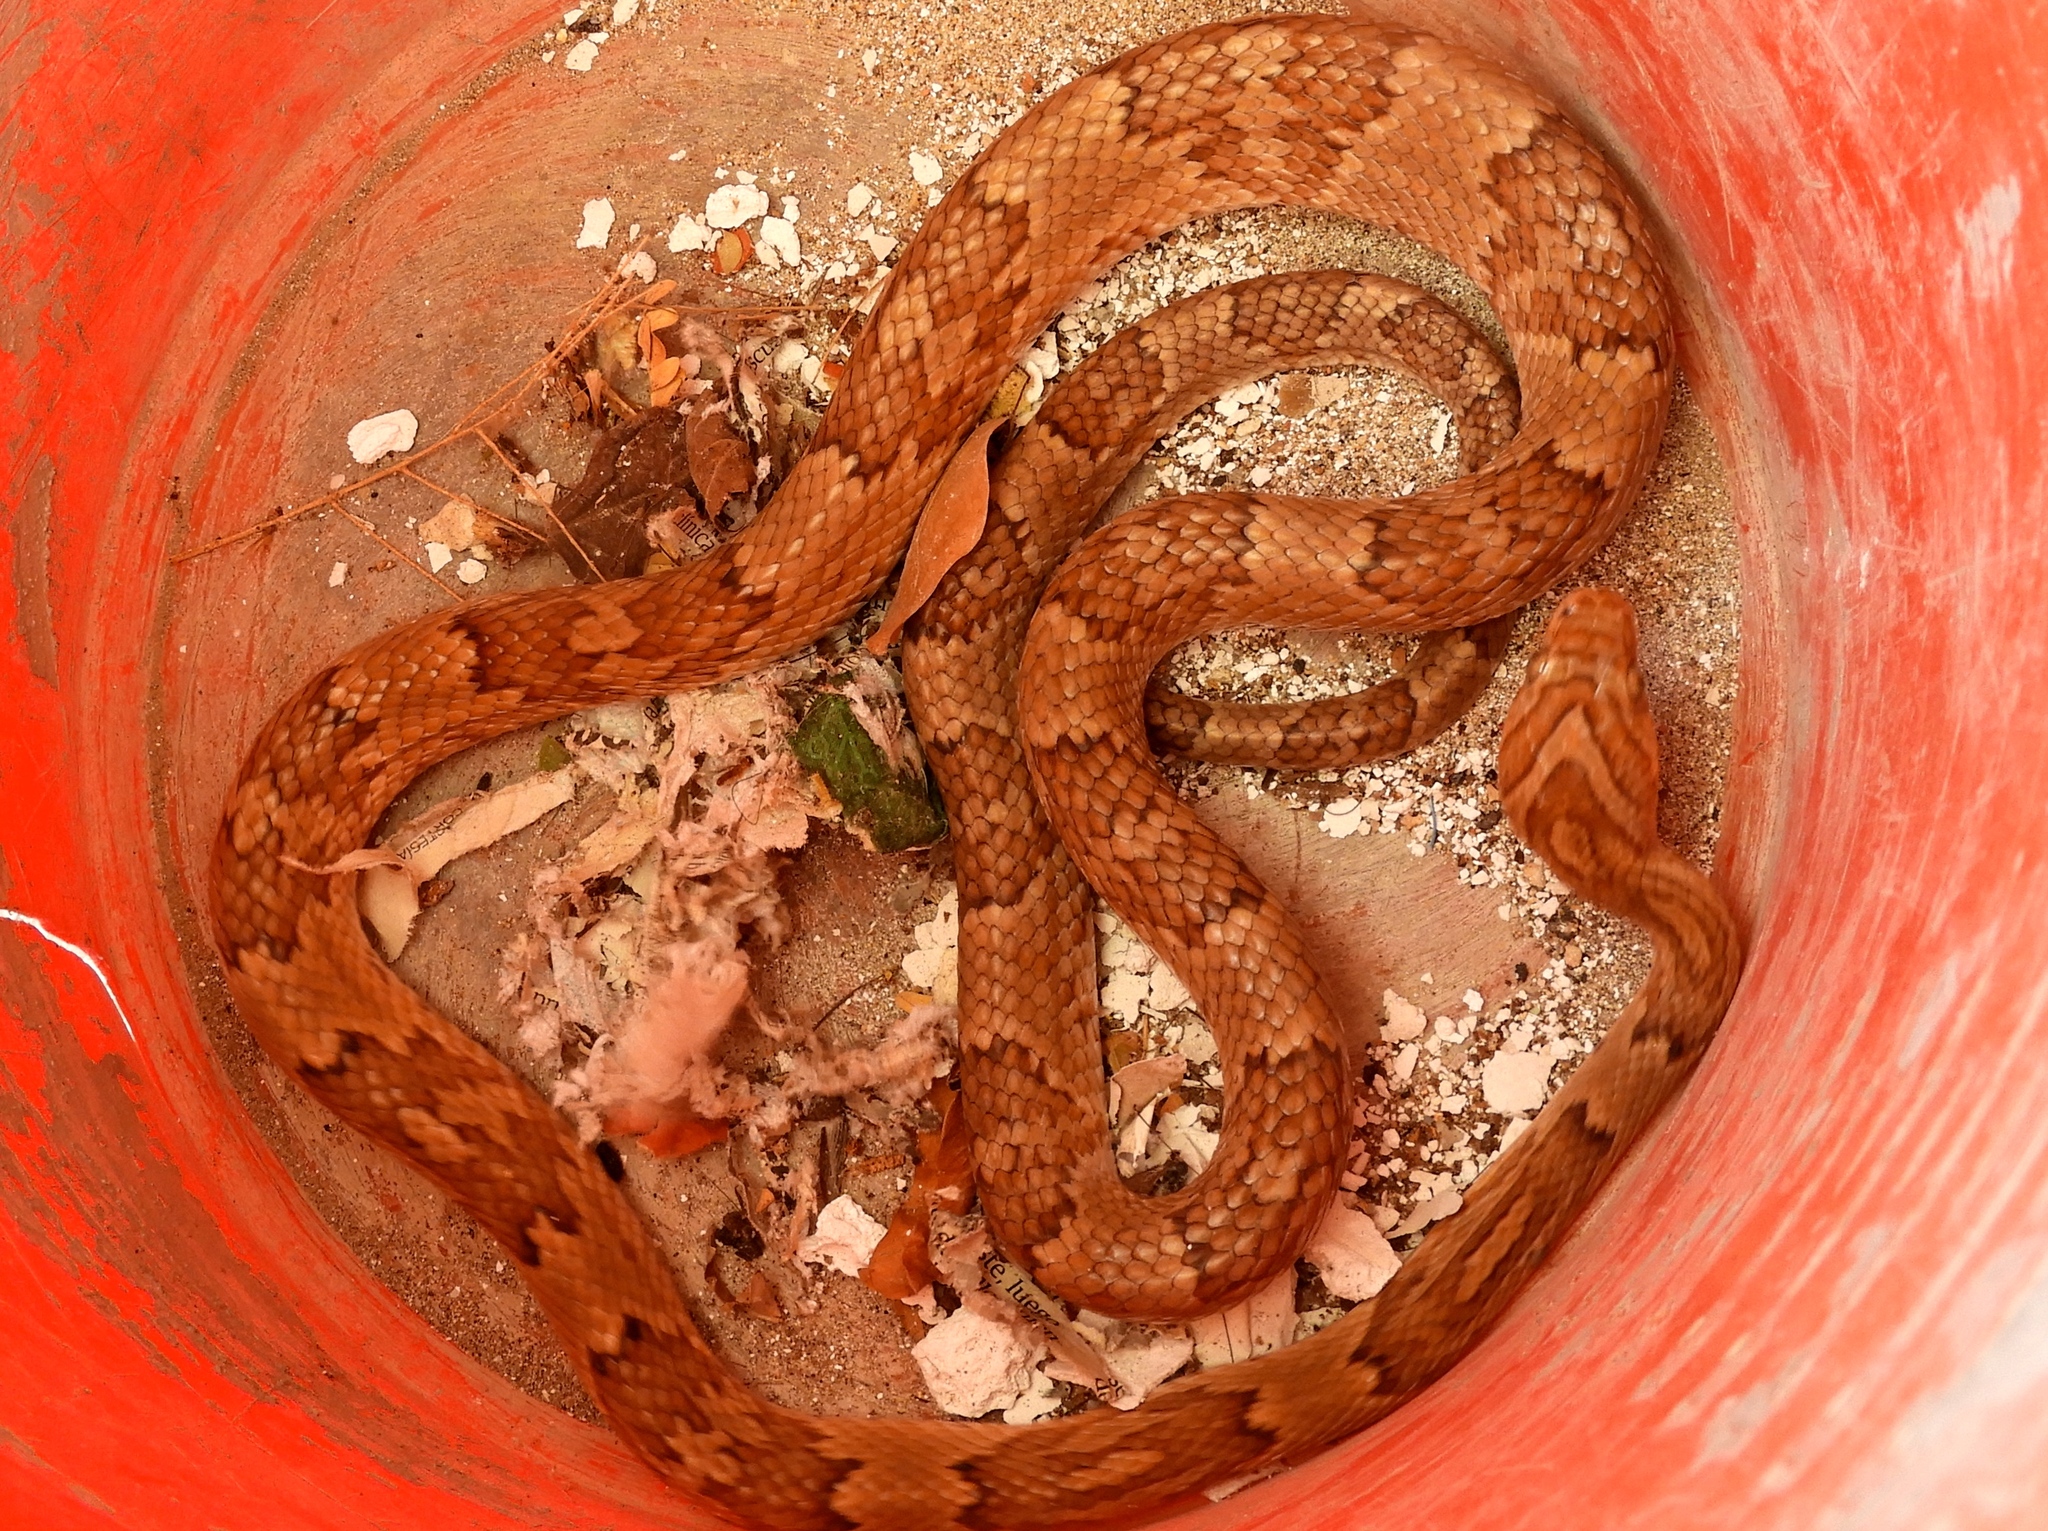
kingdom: Animalia
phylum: Chordata
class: Squamata
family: Colubridae
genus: Trimorphodon
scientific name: Trimorphodon paucimaculatus
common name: Sinaloan lyresnake
